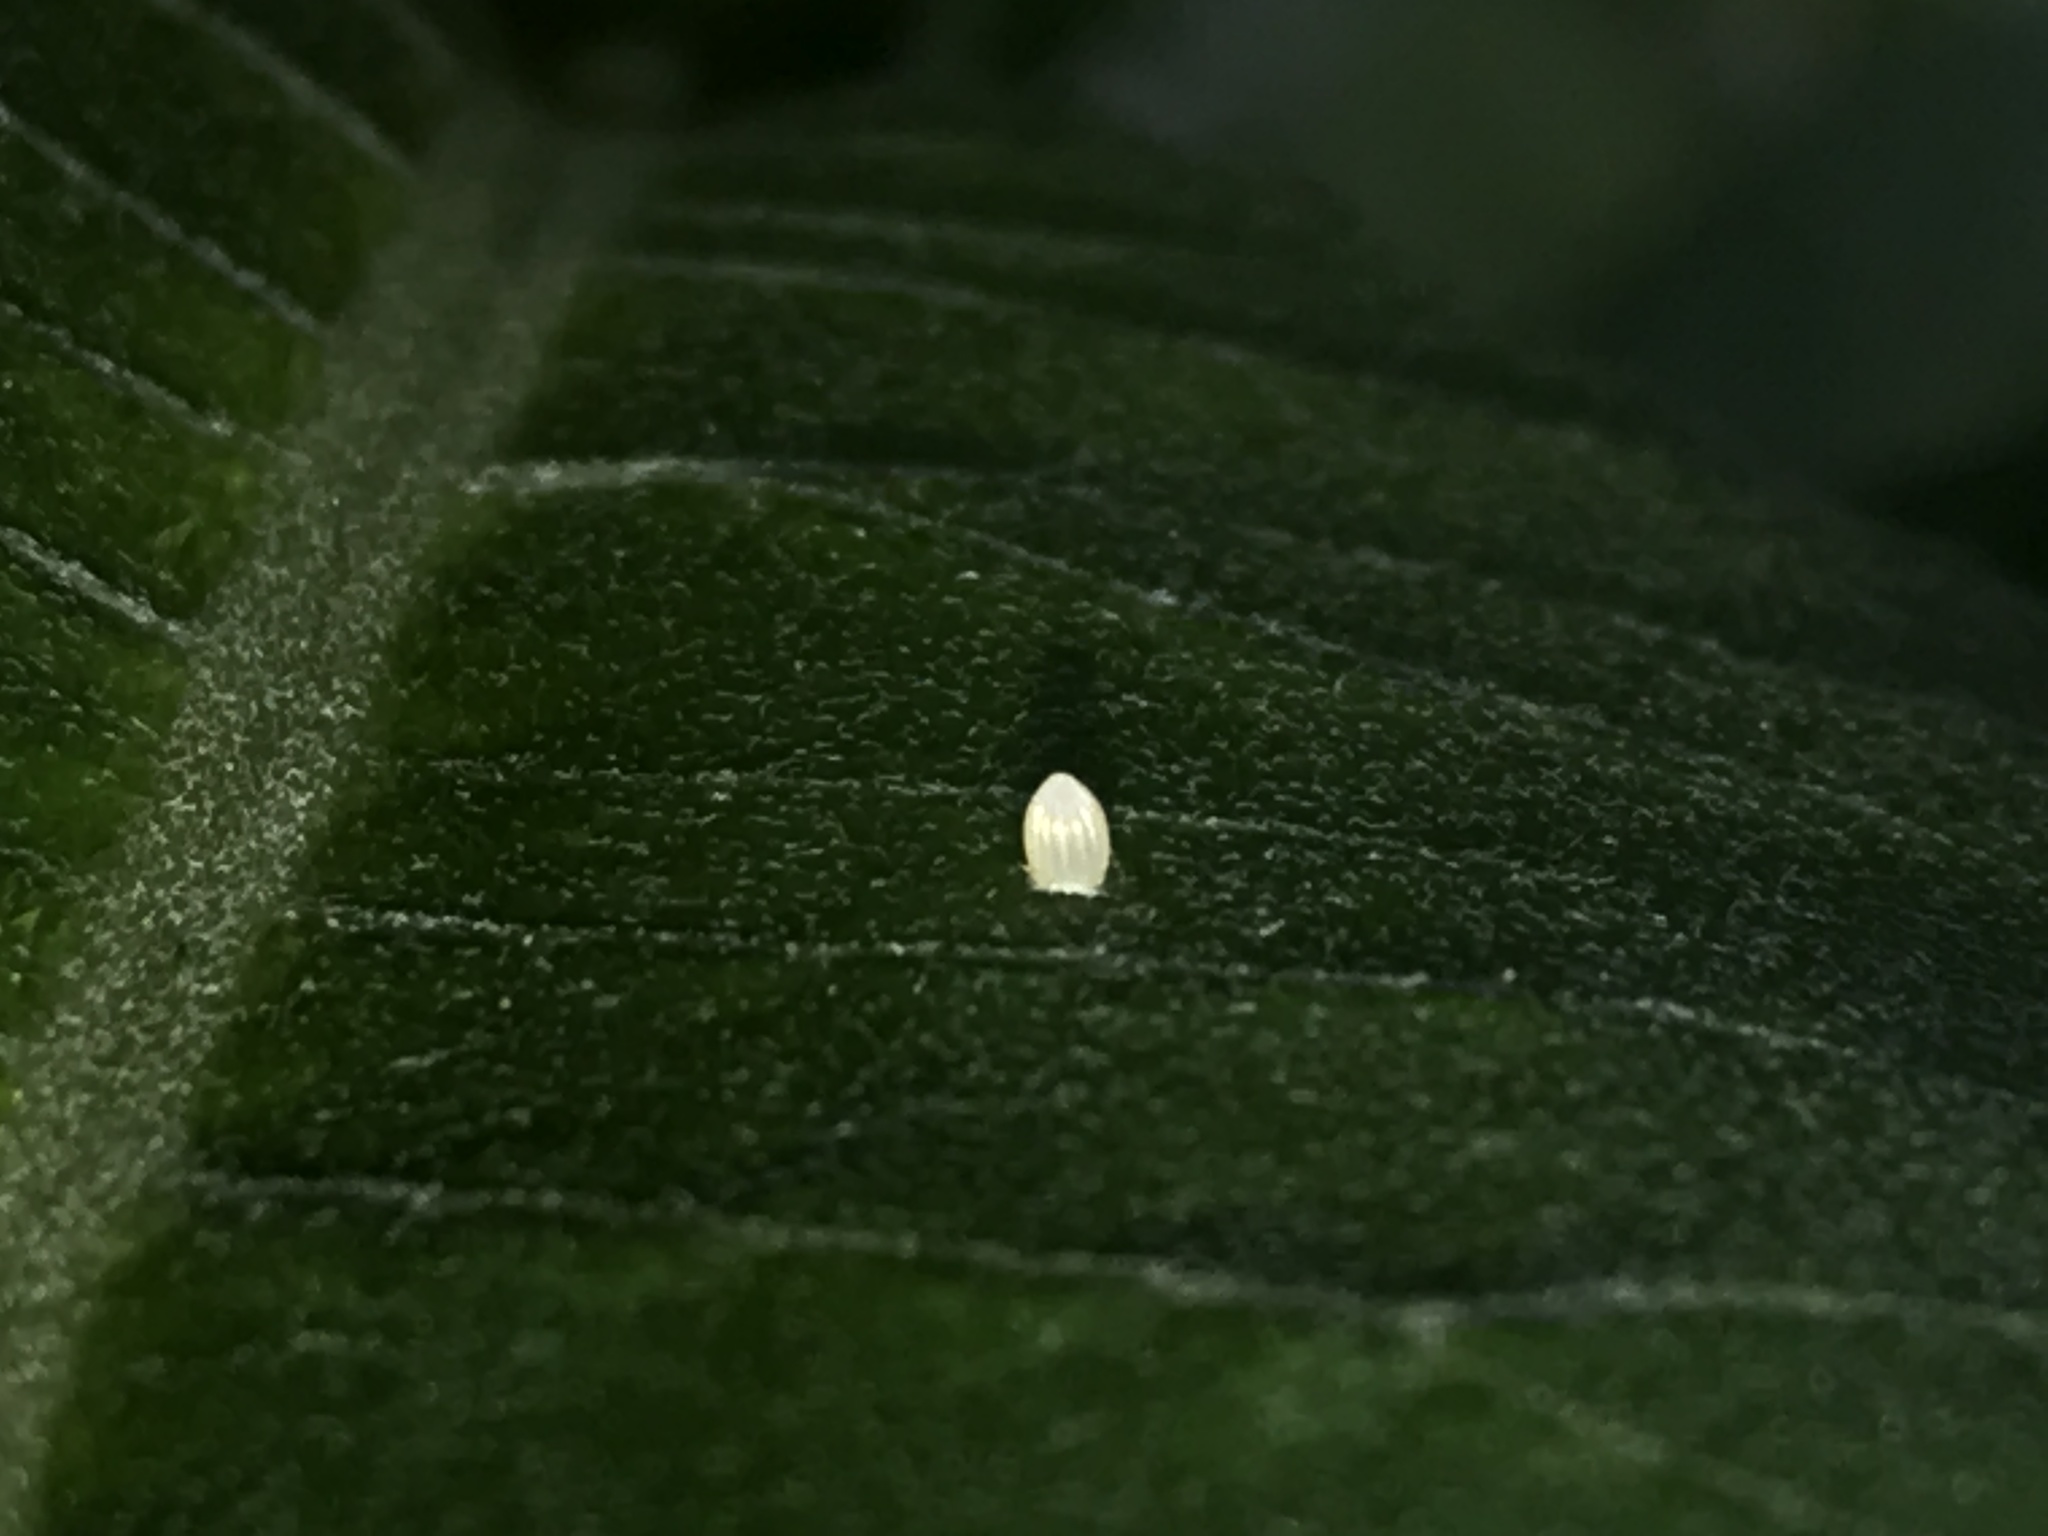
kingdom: Animalia
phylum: Arthropoda
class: Insecta
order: Lepidoptera
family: Nymphalidae
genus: Danaus
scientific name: Danaus plexippus
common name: Monarch
